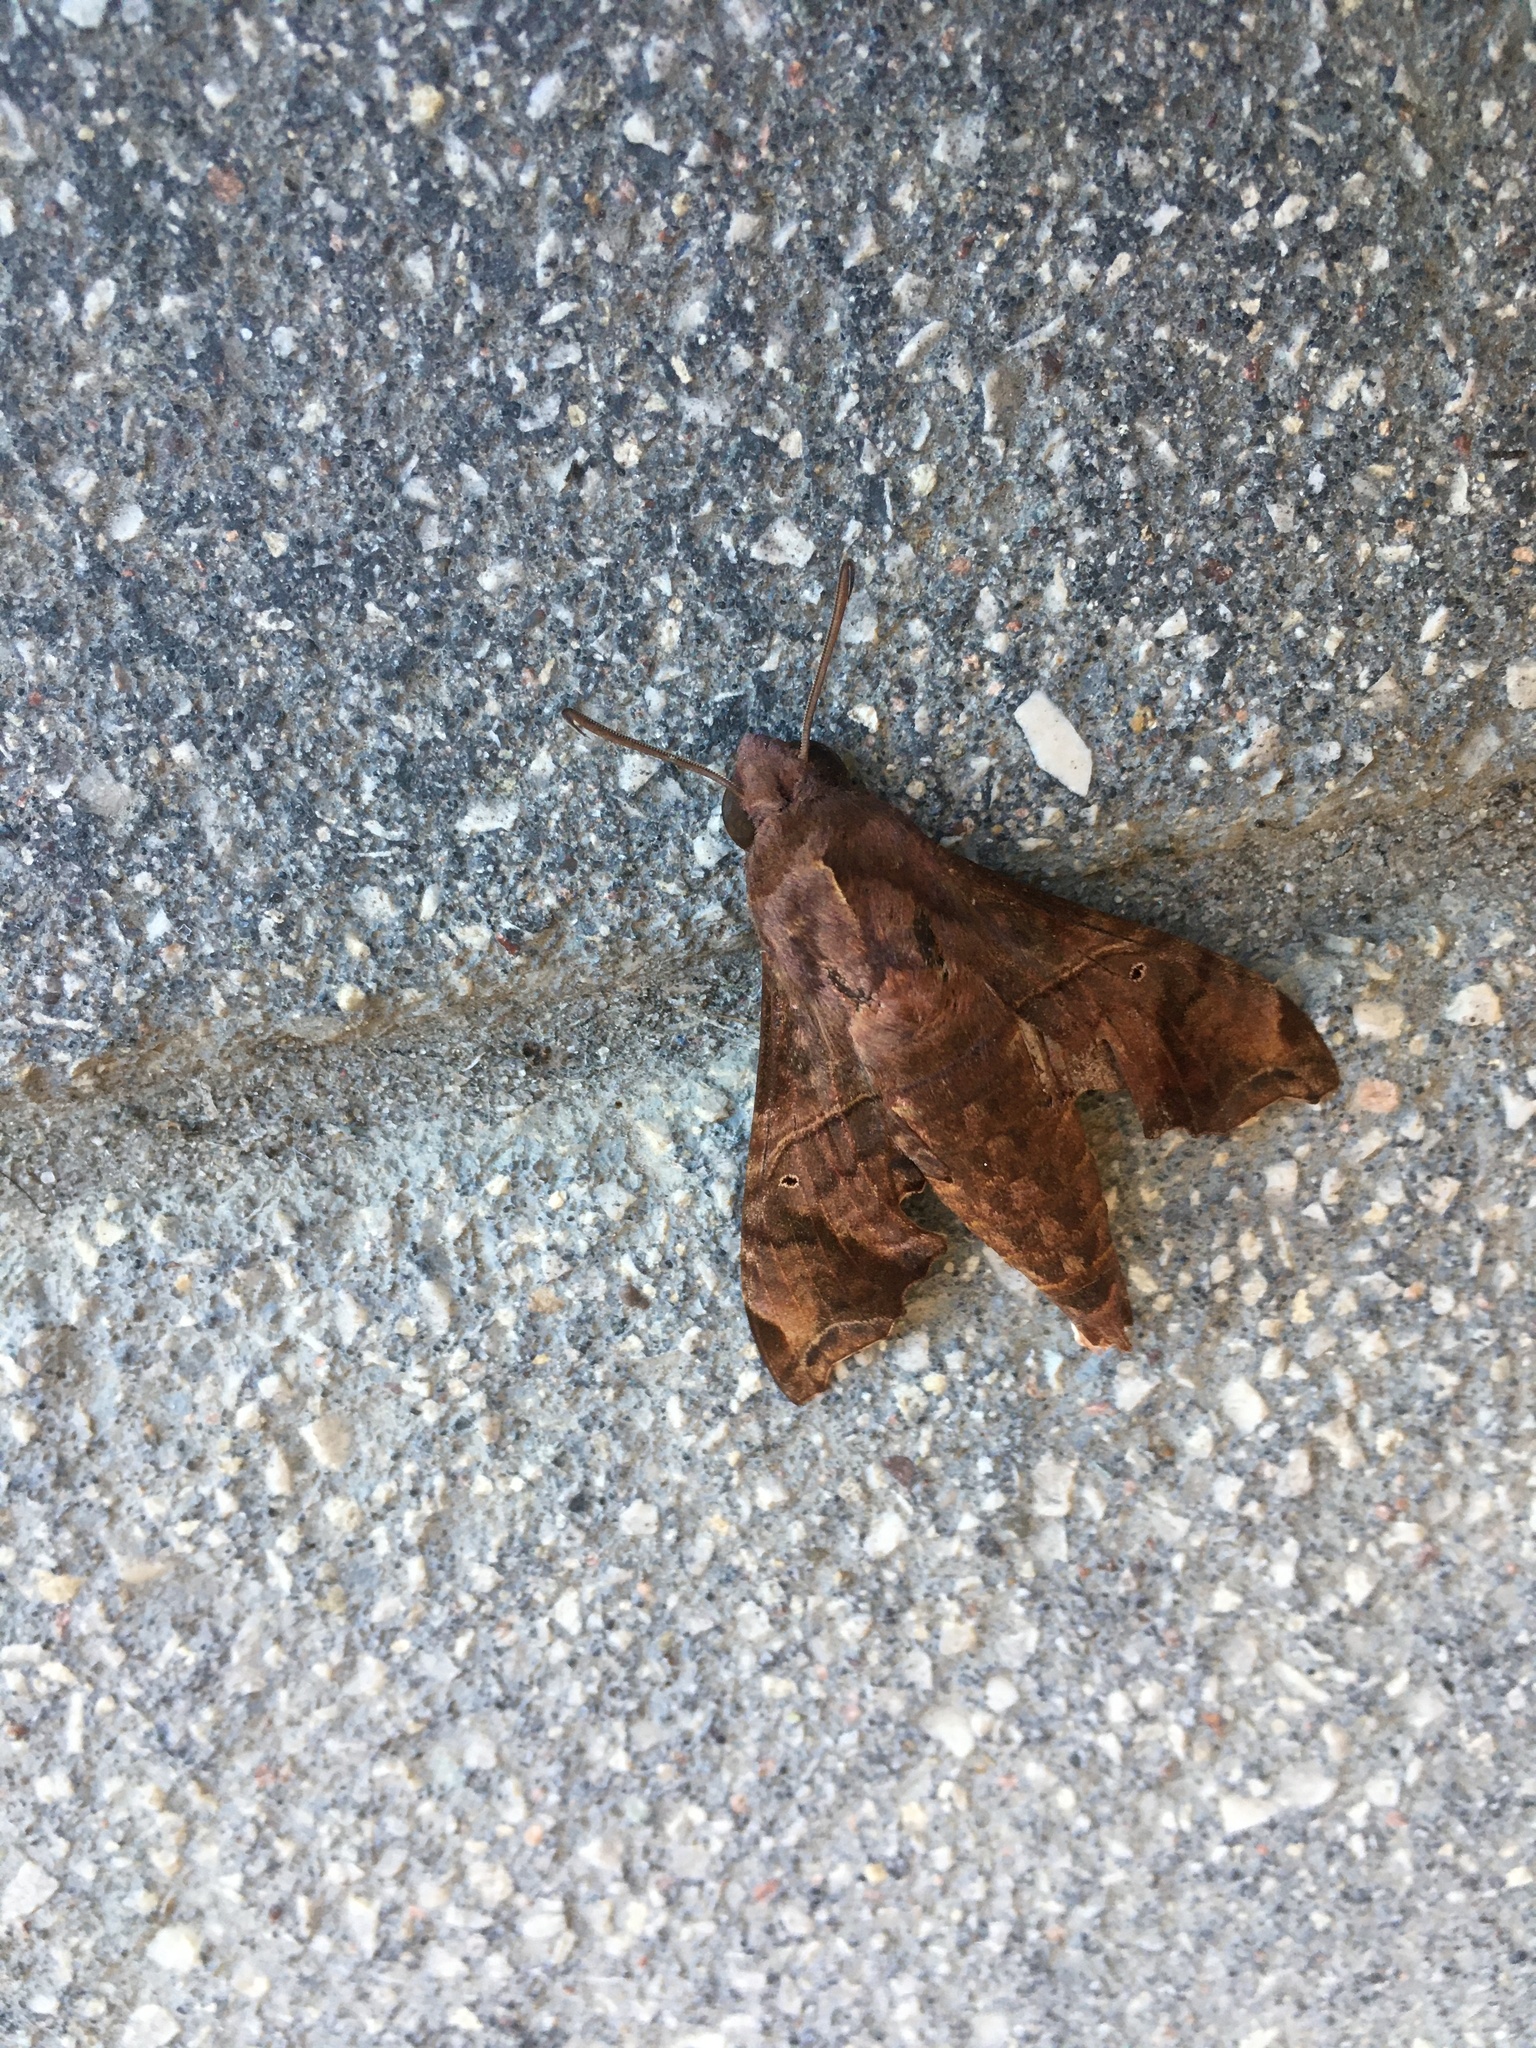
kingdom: Animalia
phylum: Arthropoda
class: Insecta
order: Lepidoptera
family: Sphingidae
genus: Enyo
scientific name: Enyo lugubris
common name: Mournful sphinx
